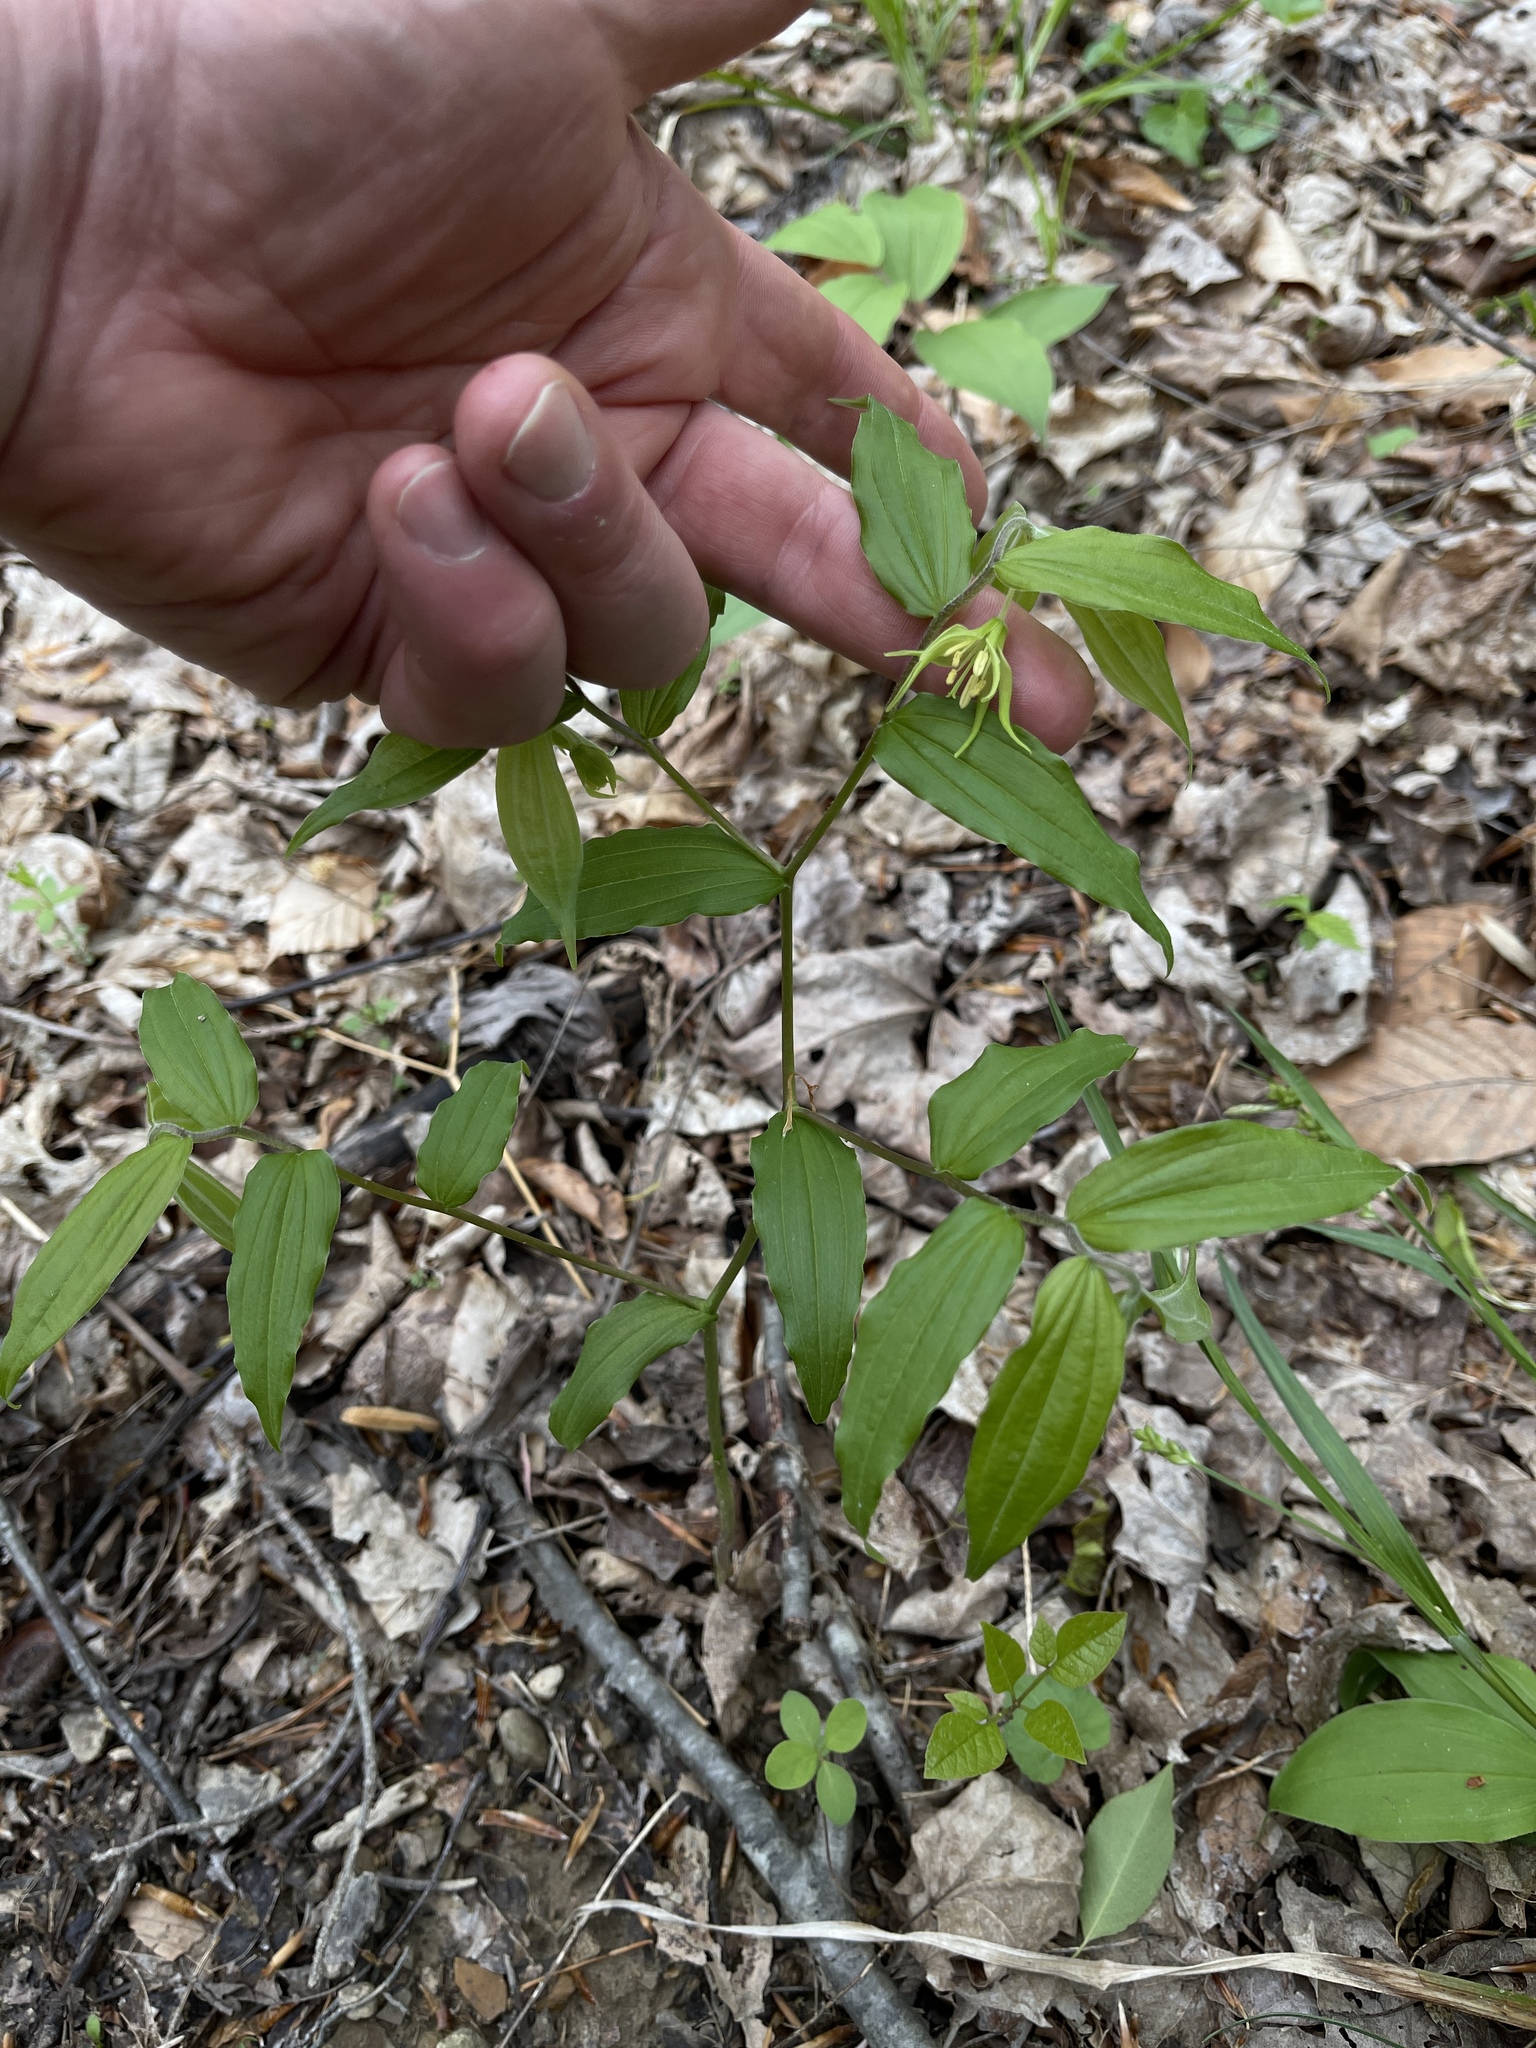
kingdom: Plantae
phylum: Tracheophyta
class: Liliopsida
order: Liliales
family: Liliaceae
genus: Prosartes
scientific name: Prosartes lanuginosa
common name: Hairy mandarin
